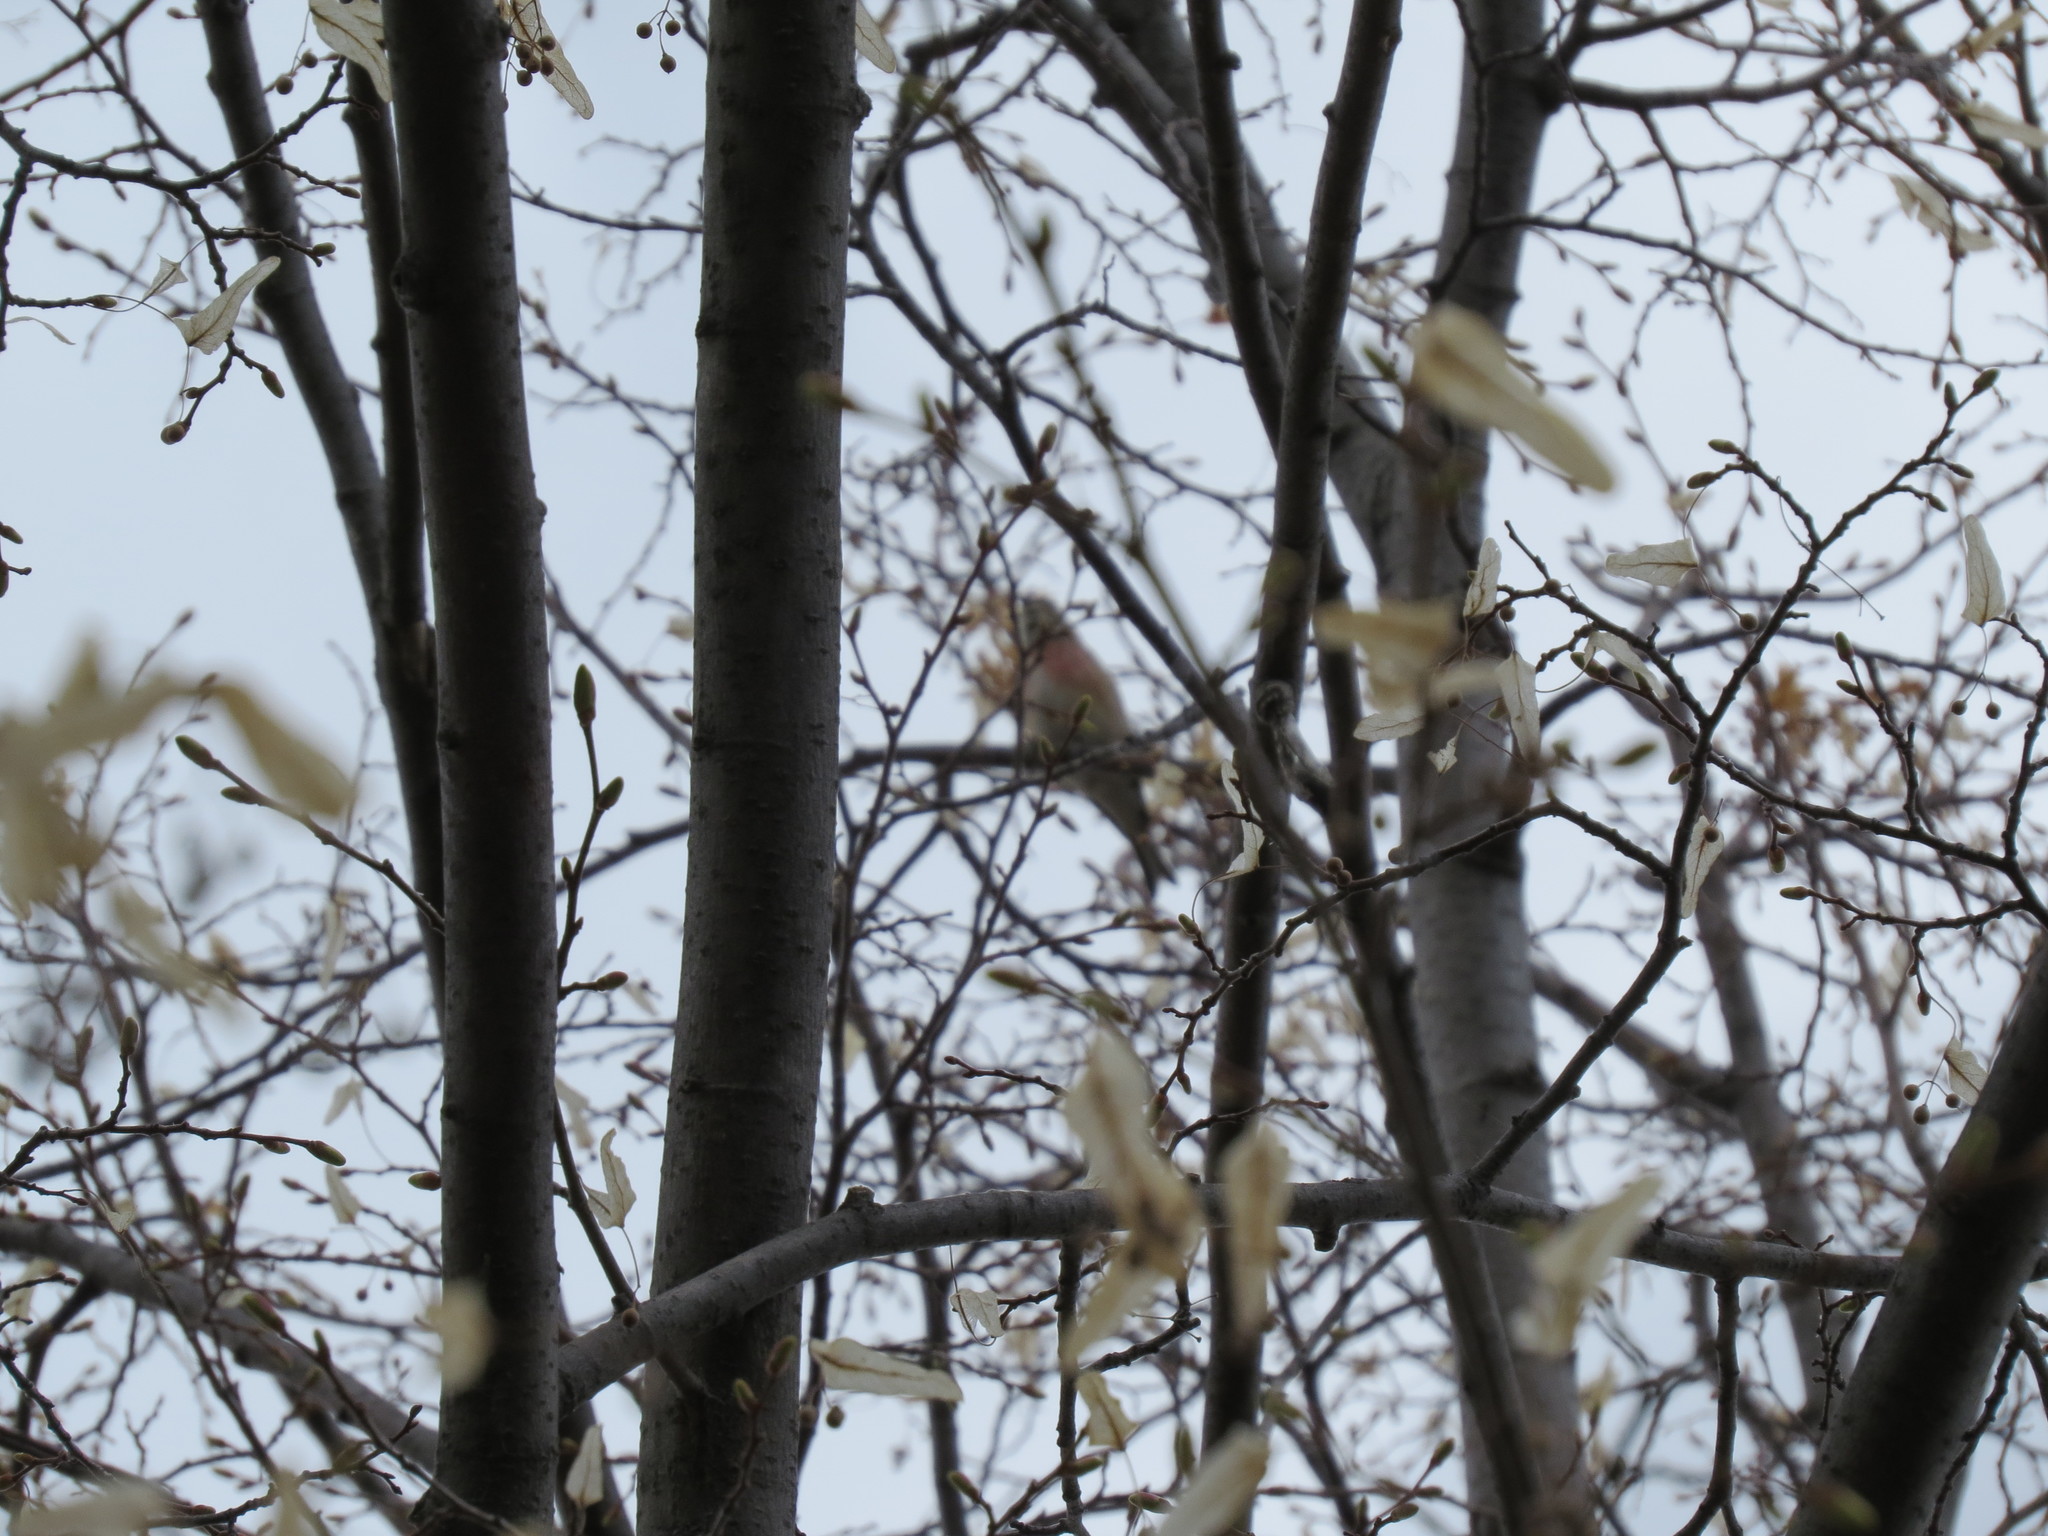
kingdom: Animalia
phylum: Chordata
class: Aves
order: Passeriformes
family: Fringillidae
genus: Linaria
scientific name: Linaria cannabina
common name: Common linnet
